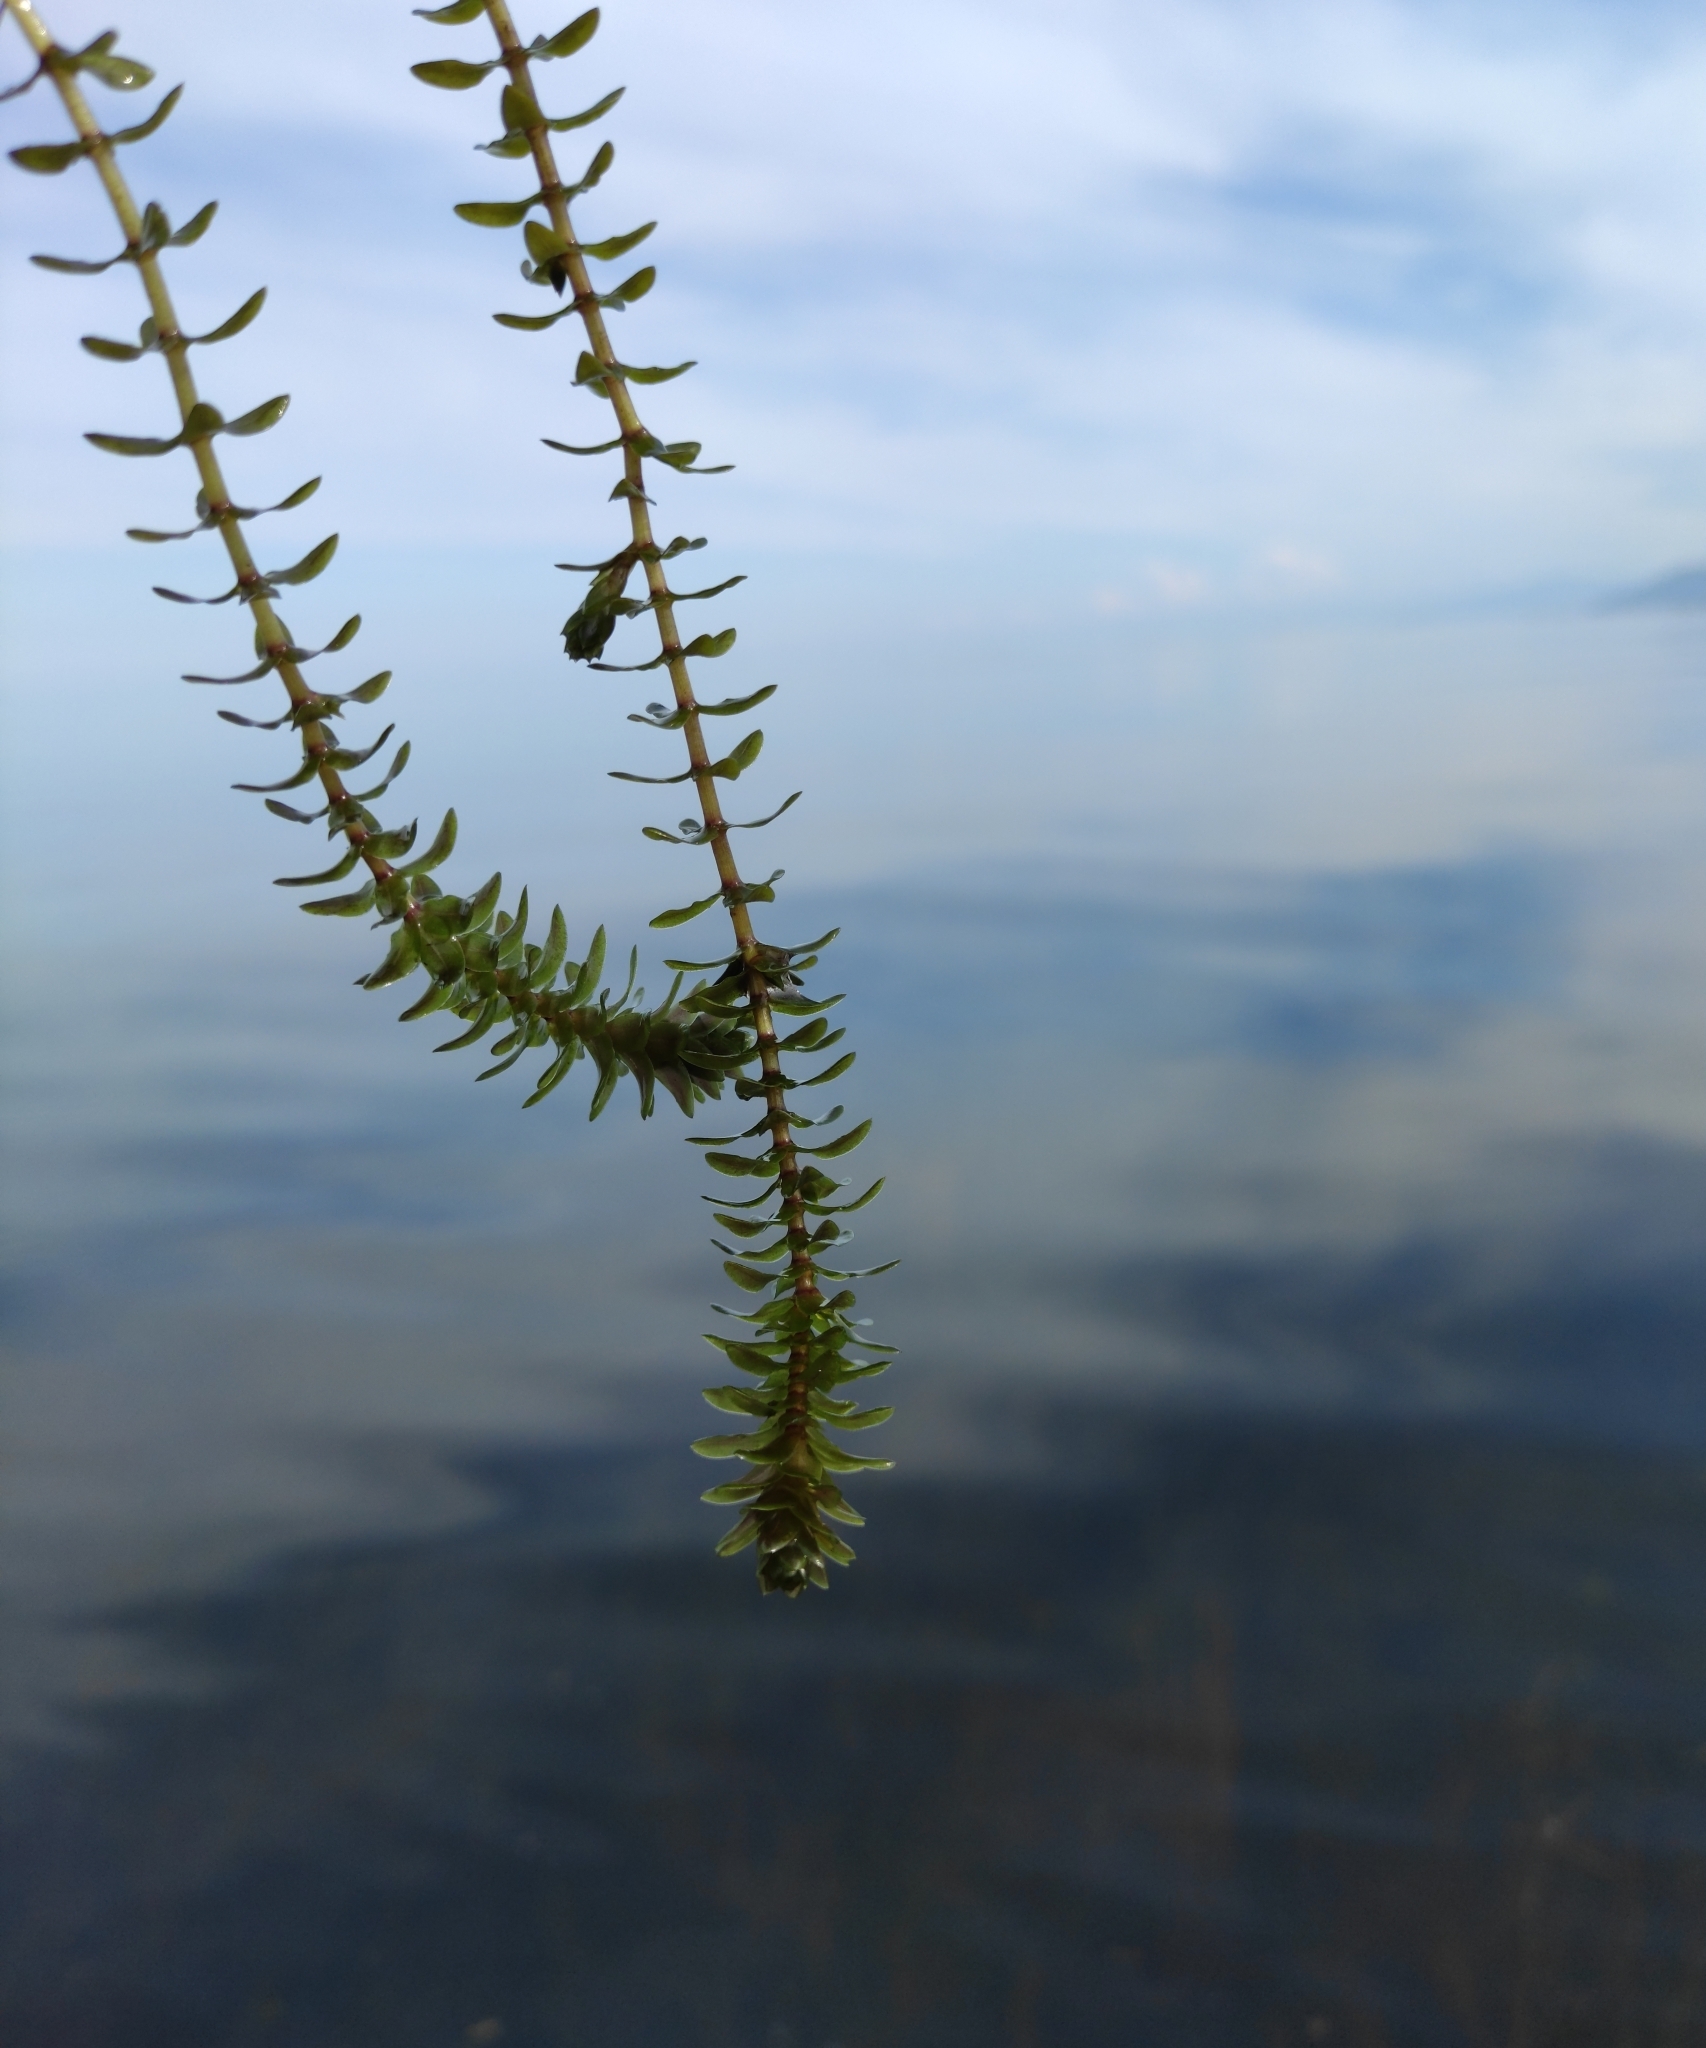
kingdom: Plantae
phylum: Tracheophyta
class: Liliopsida
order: Alismatales
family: Hydrocharitaceae
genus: Elodea
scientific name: Elodea canadensis
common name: Canadian waterweed
